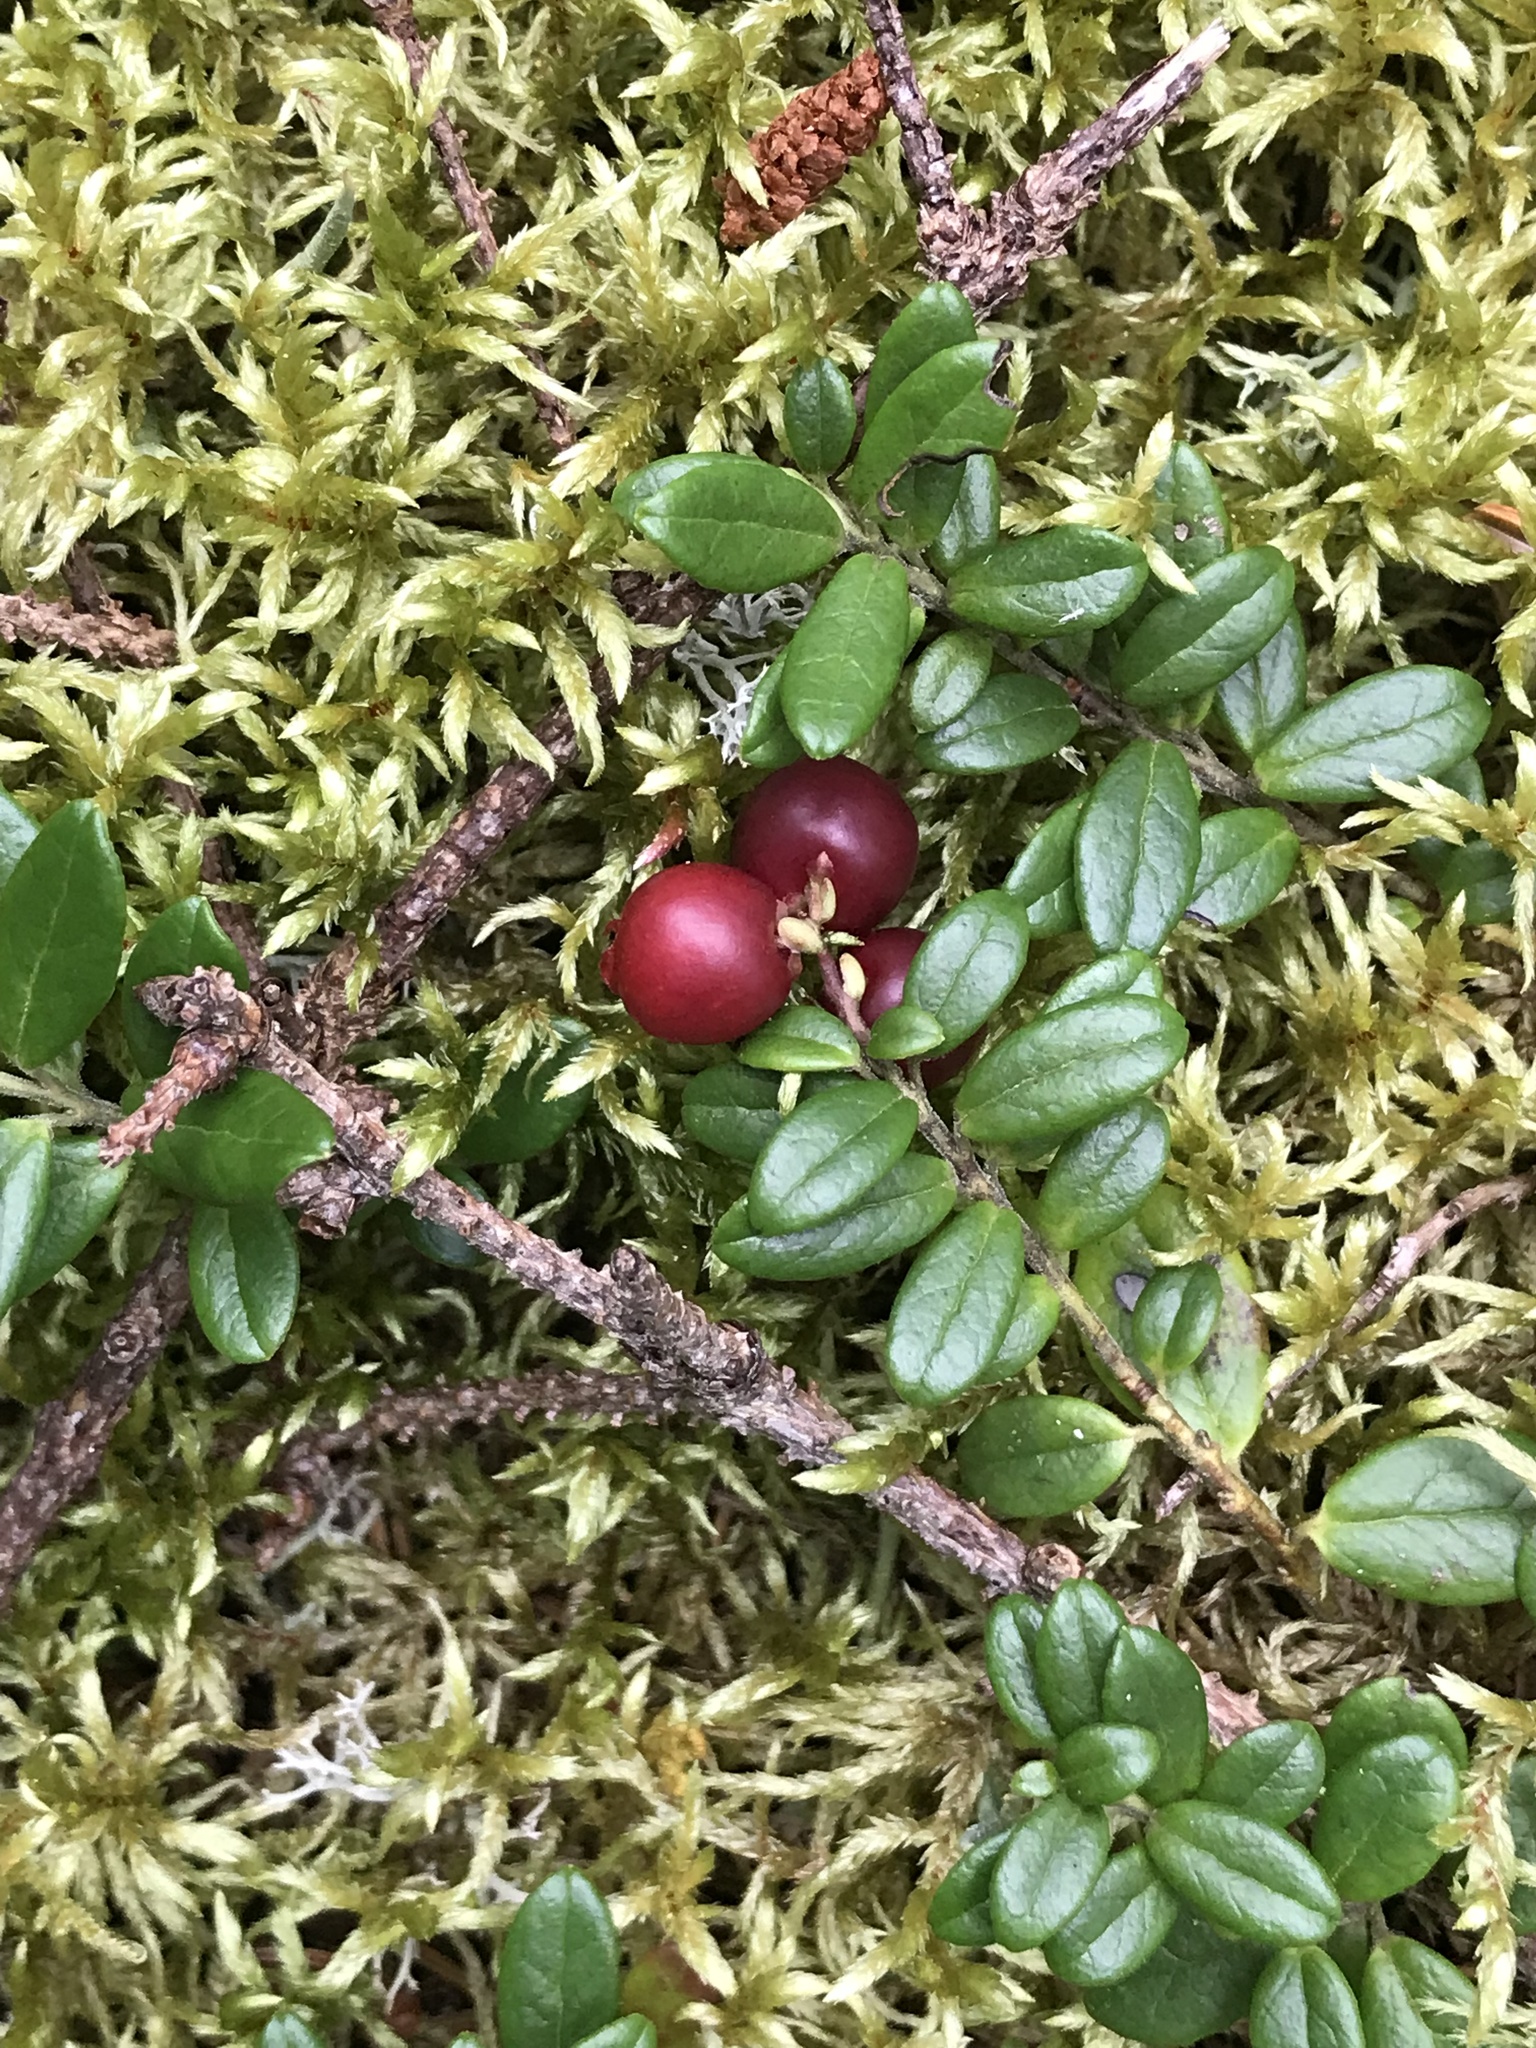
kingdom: Plantae
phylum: Tracheophyta
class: Magnoliopsida
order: Ericales
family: Ericaceae
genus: Vaccinium
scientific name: Vaccinium vitis-idaea
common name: Cowberry
